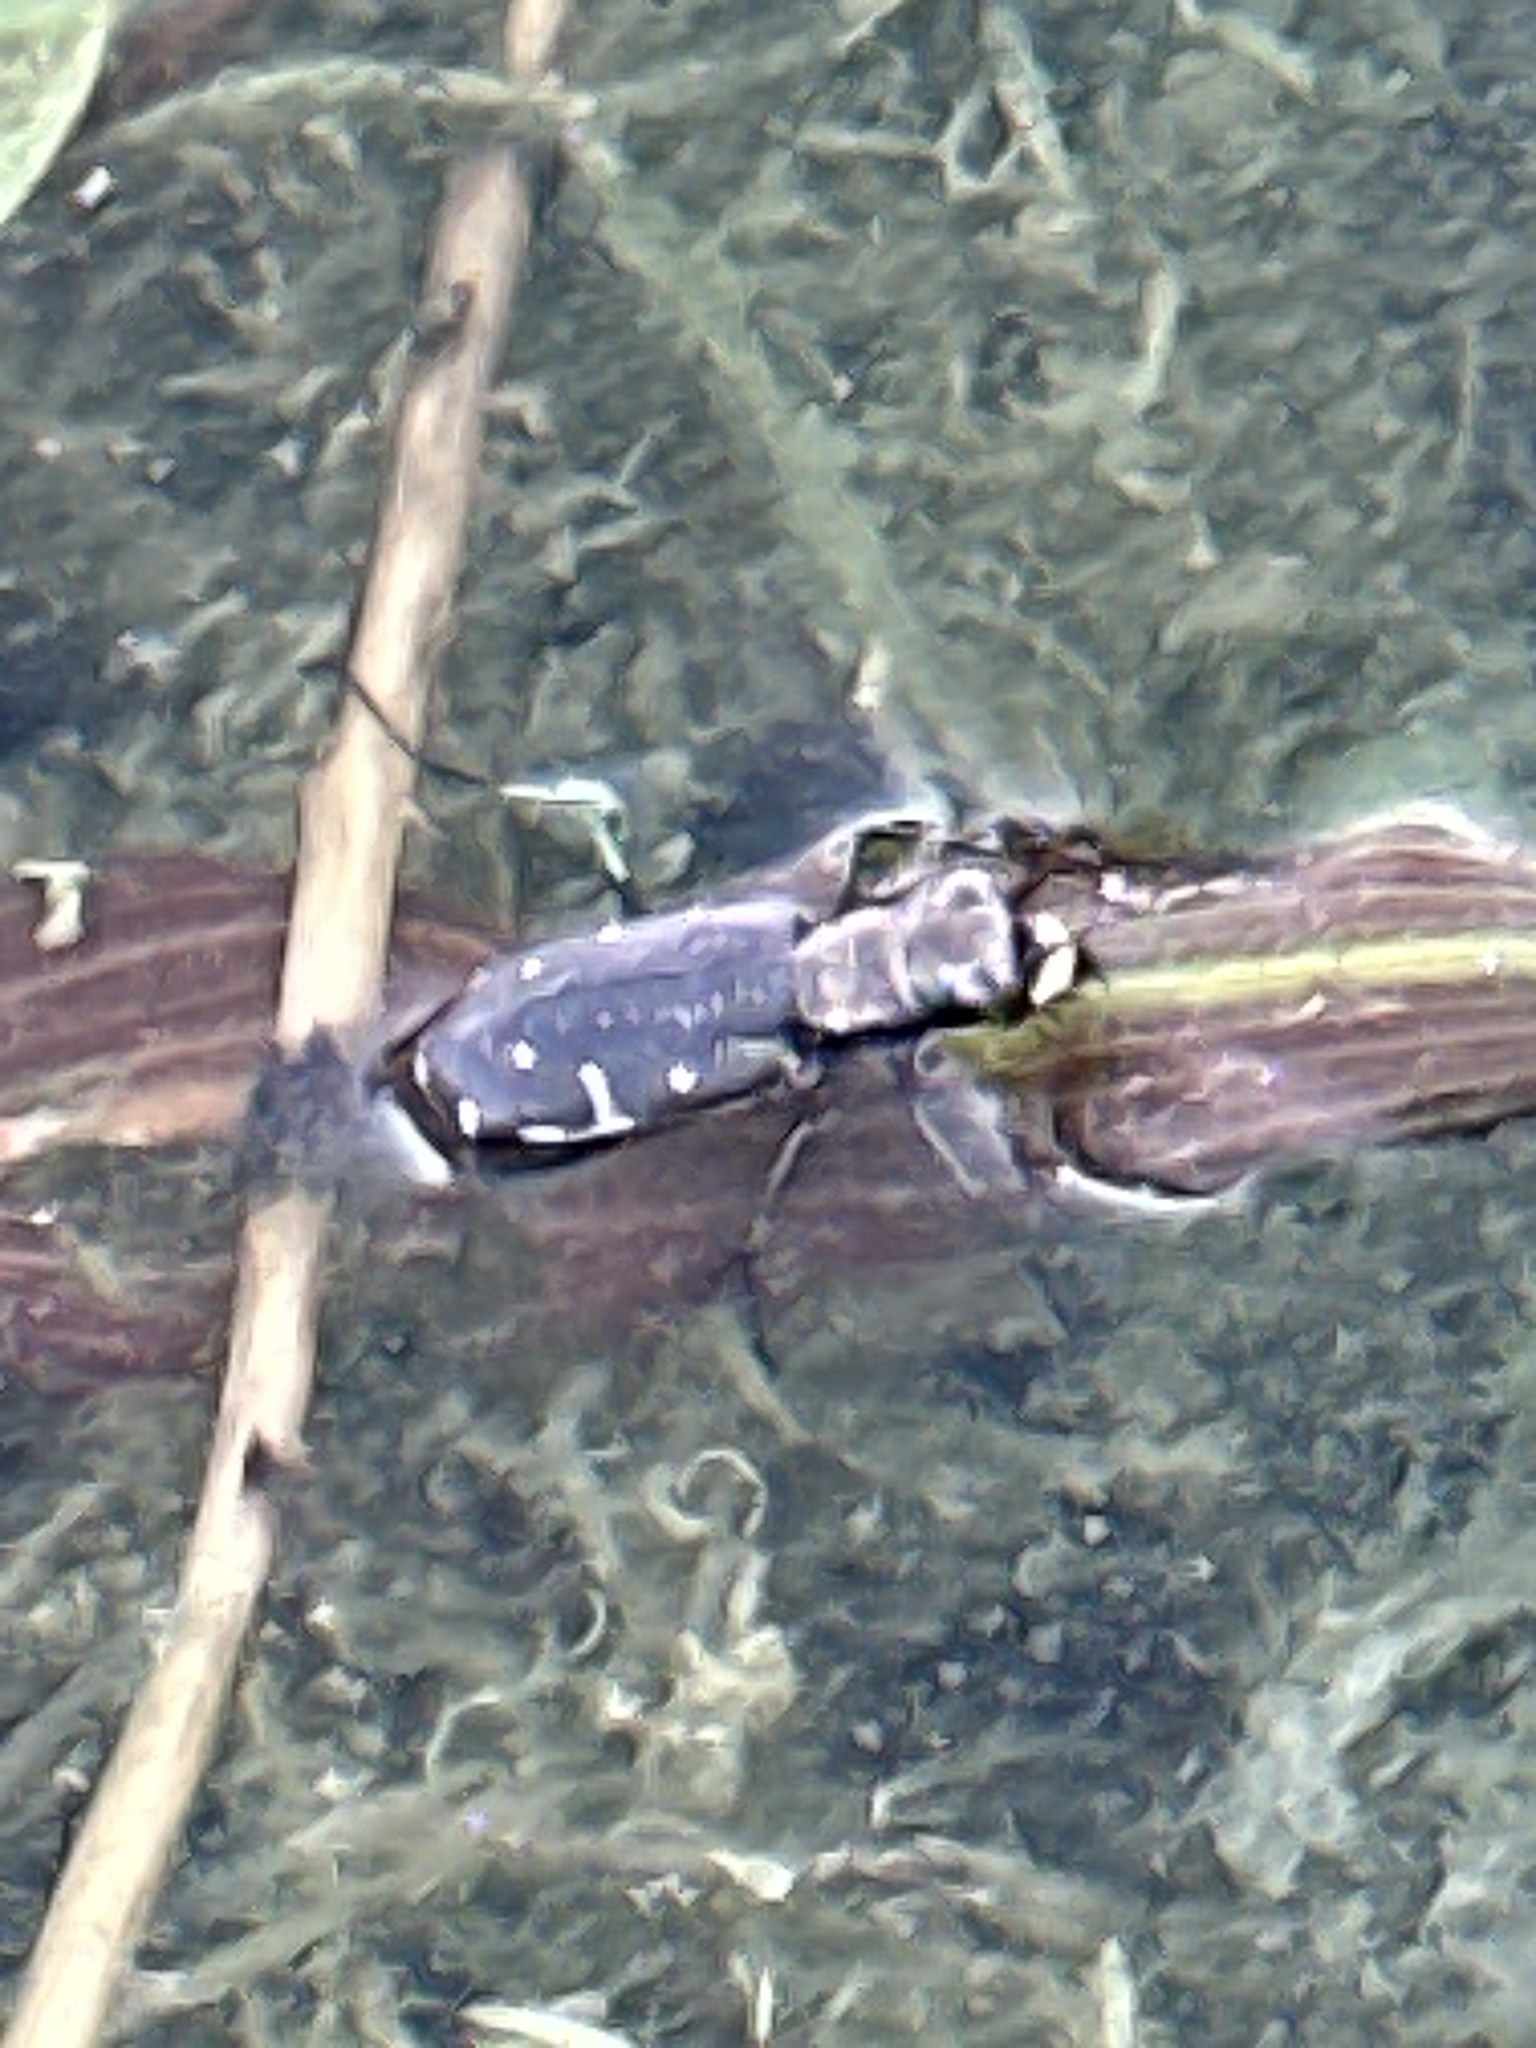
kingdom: Animalia
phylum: Arthropoda
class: Insecta
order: Coleoptera
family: Carabidae
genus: Cicindela
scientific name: Cicindela punctulata
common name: Punctured tiger beetle
